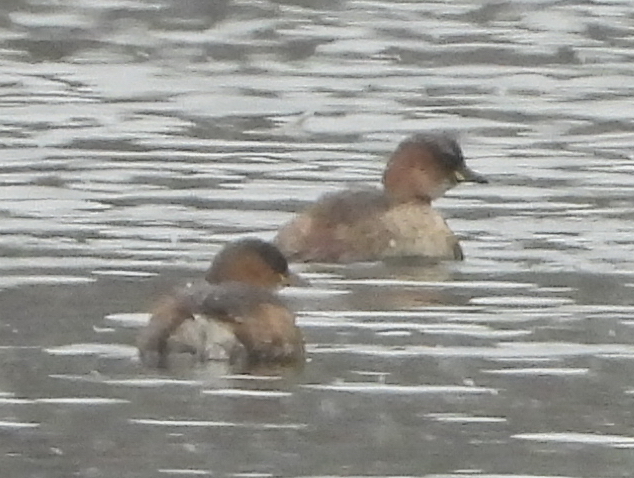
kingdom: Animalia
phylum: Chordata
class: Aves
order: Podicipediformes
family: Podicipedidae
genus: Tachybaptus
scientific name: Tachybaptus ruficollis
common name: Little grebe
